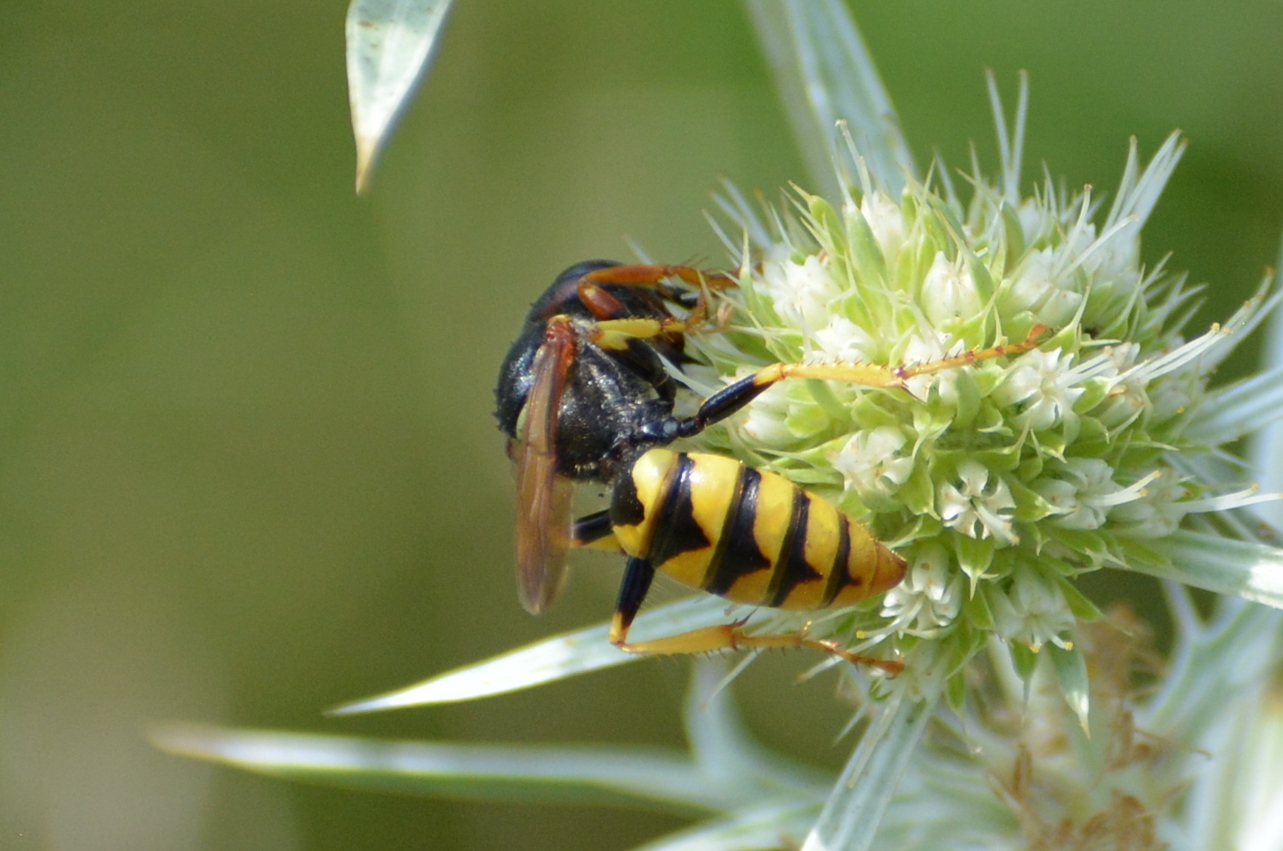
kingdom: Animalia
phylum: Arthropoda
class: Insecta
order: Hymenoptera
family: Crabronidae
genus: Philanthus
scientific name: Philanthus triangulum
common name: Bee wolf
